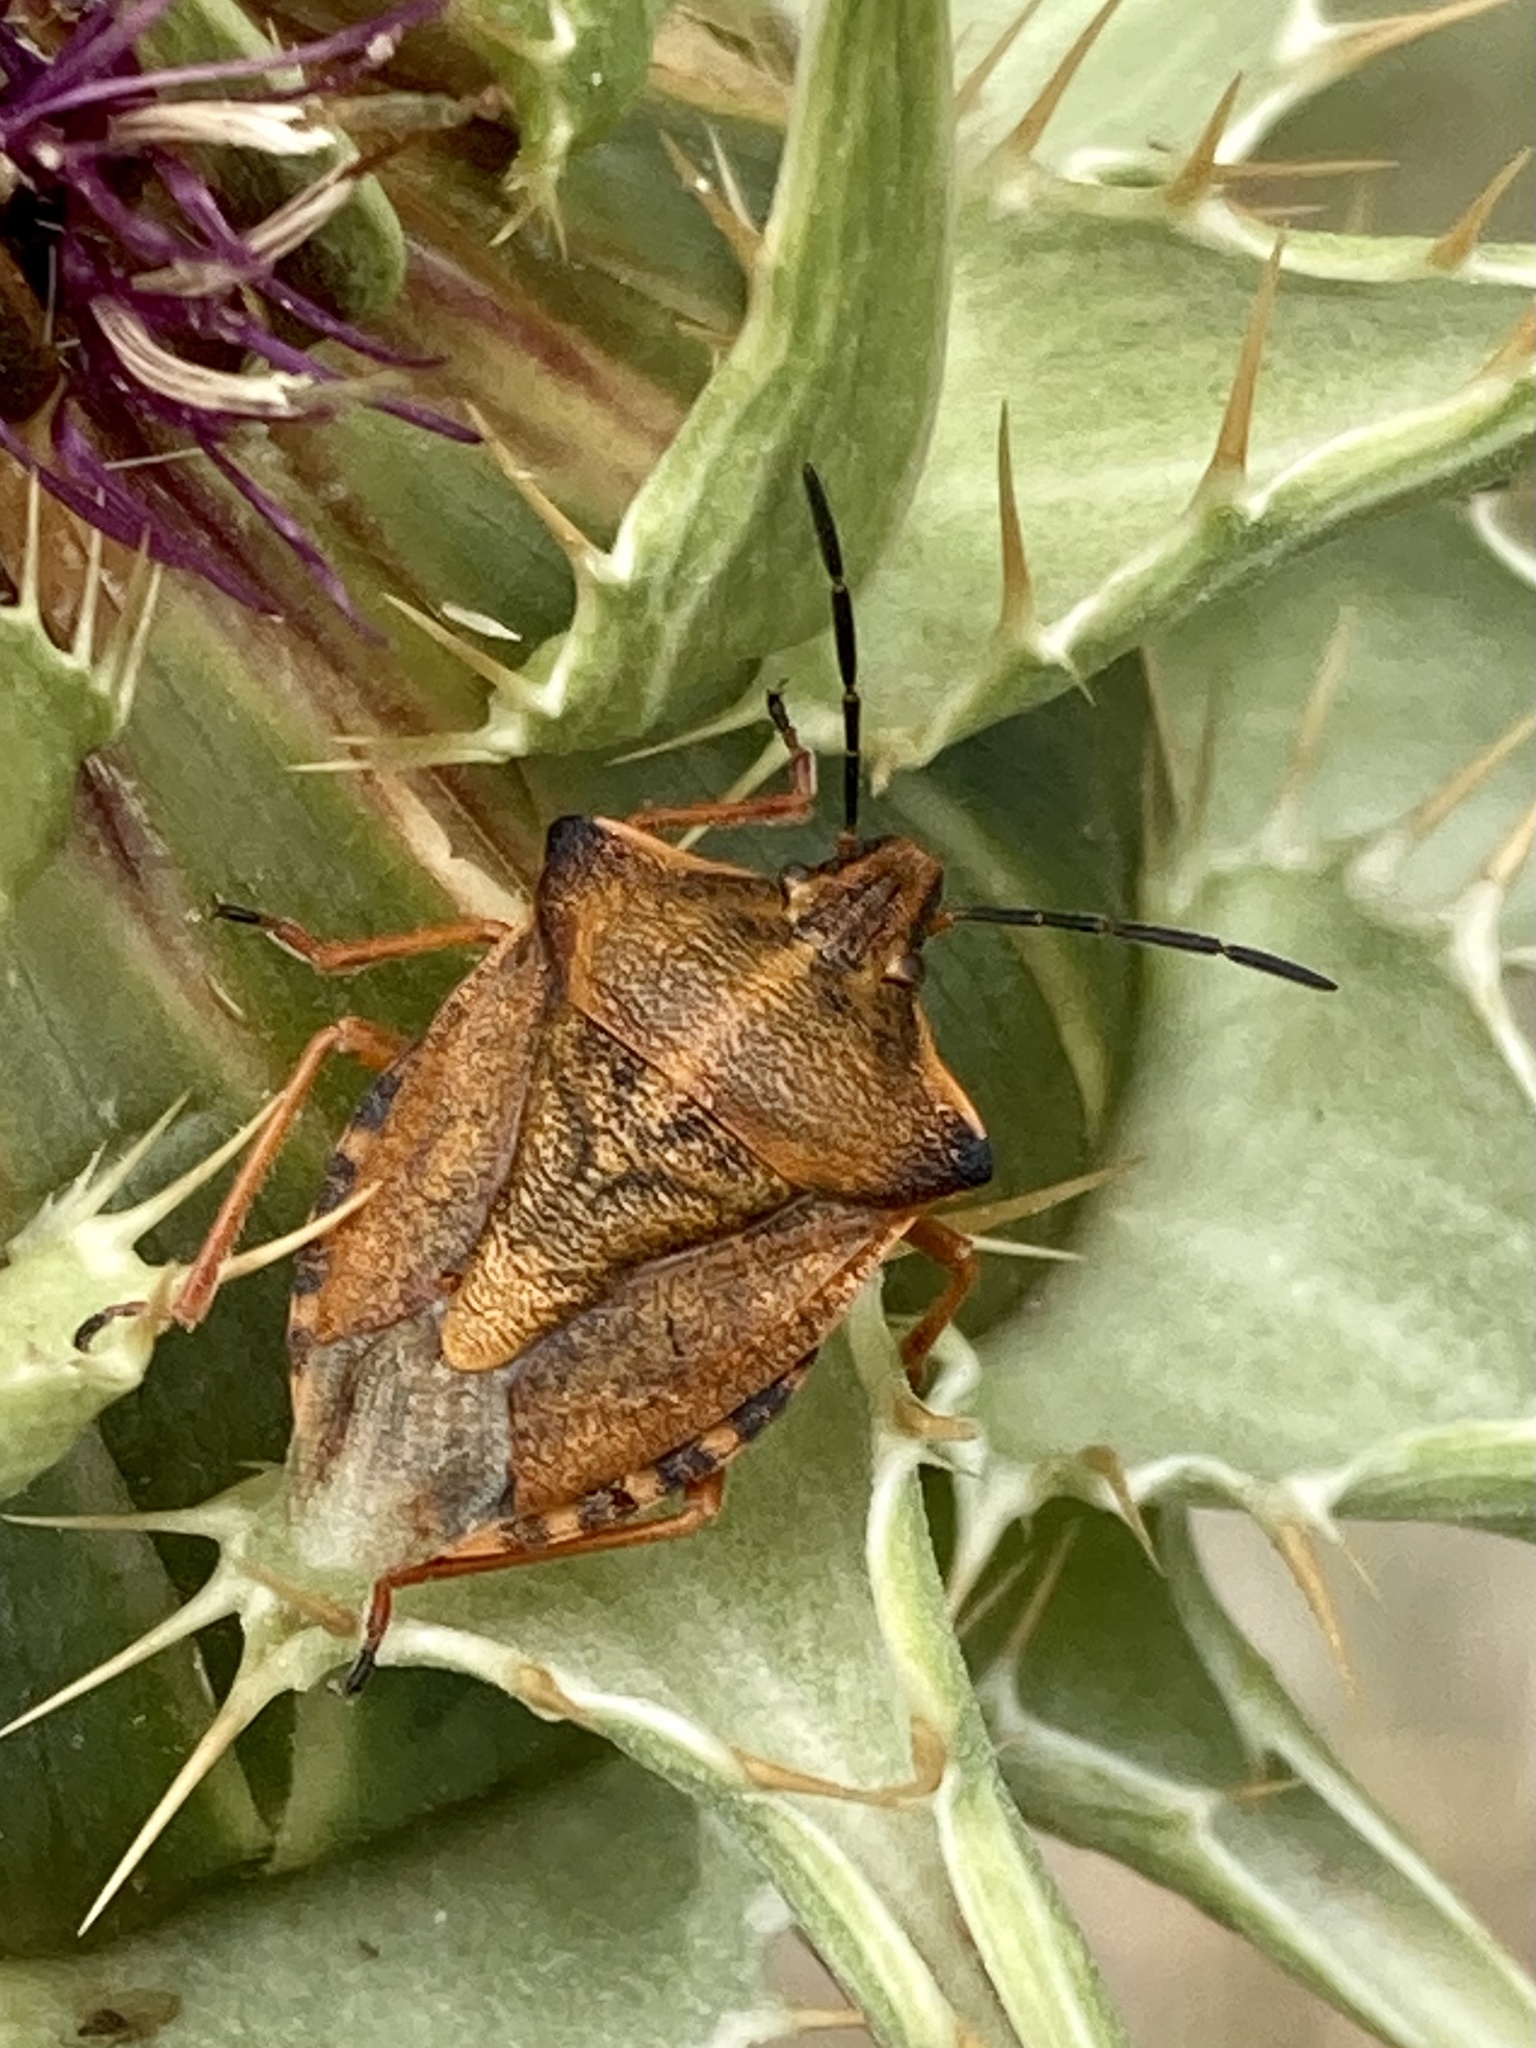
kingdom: Animalia
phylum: Arthropoda
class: Insecta
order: Hemiptera
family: Pentatomidae
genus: Carpocoris
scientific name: Carpocoris mediterraneus
